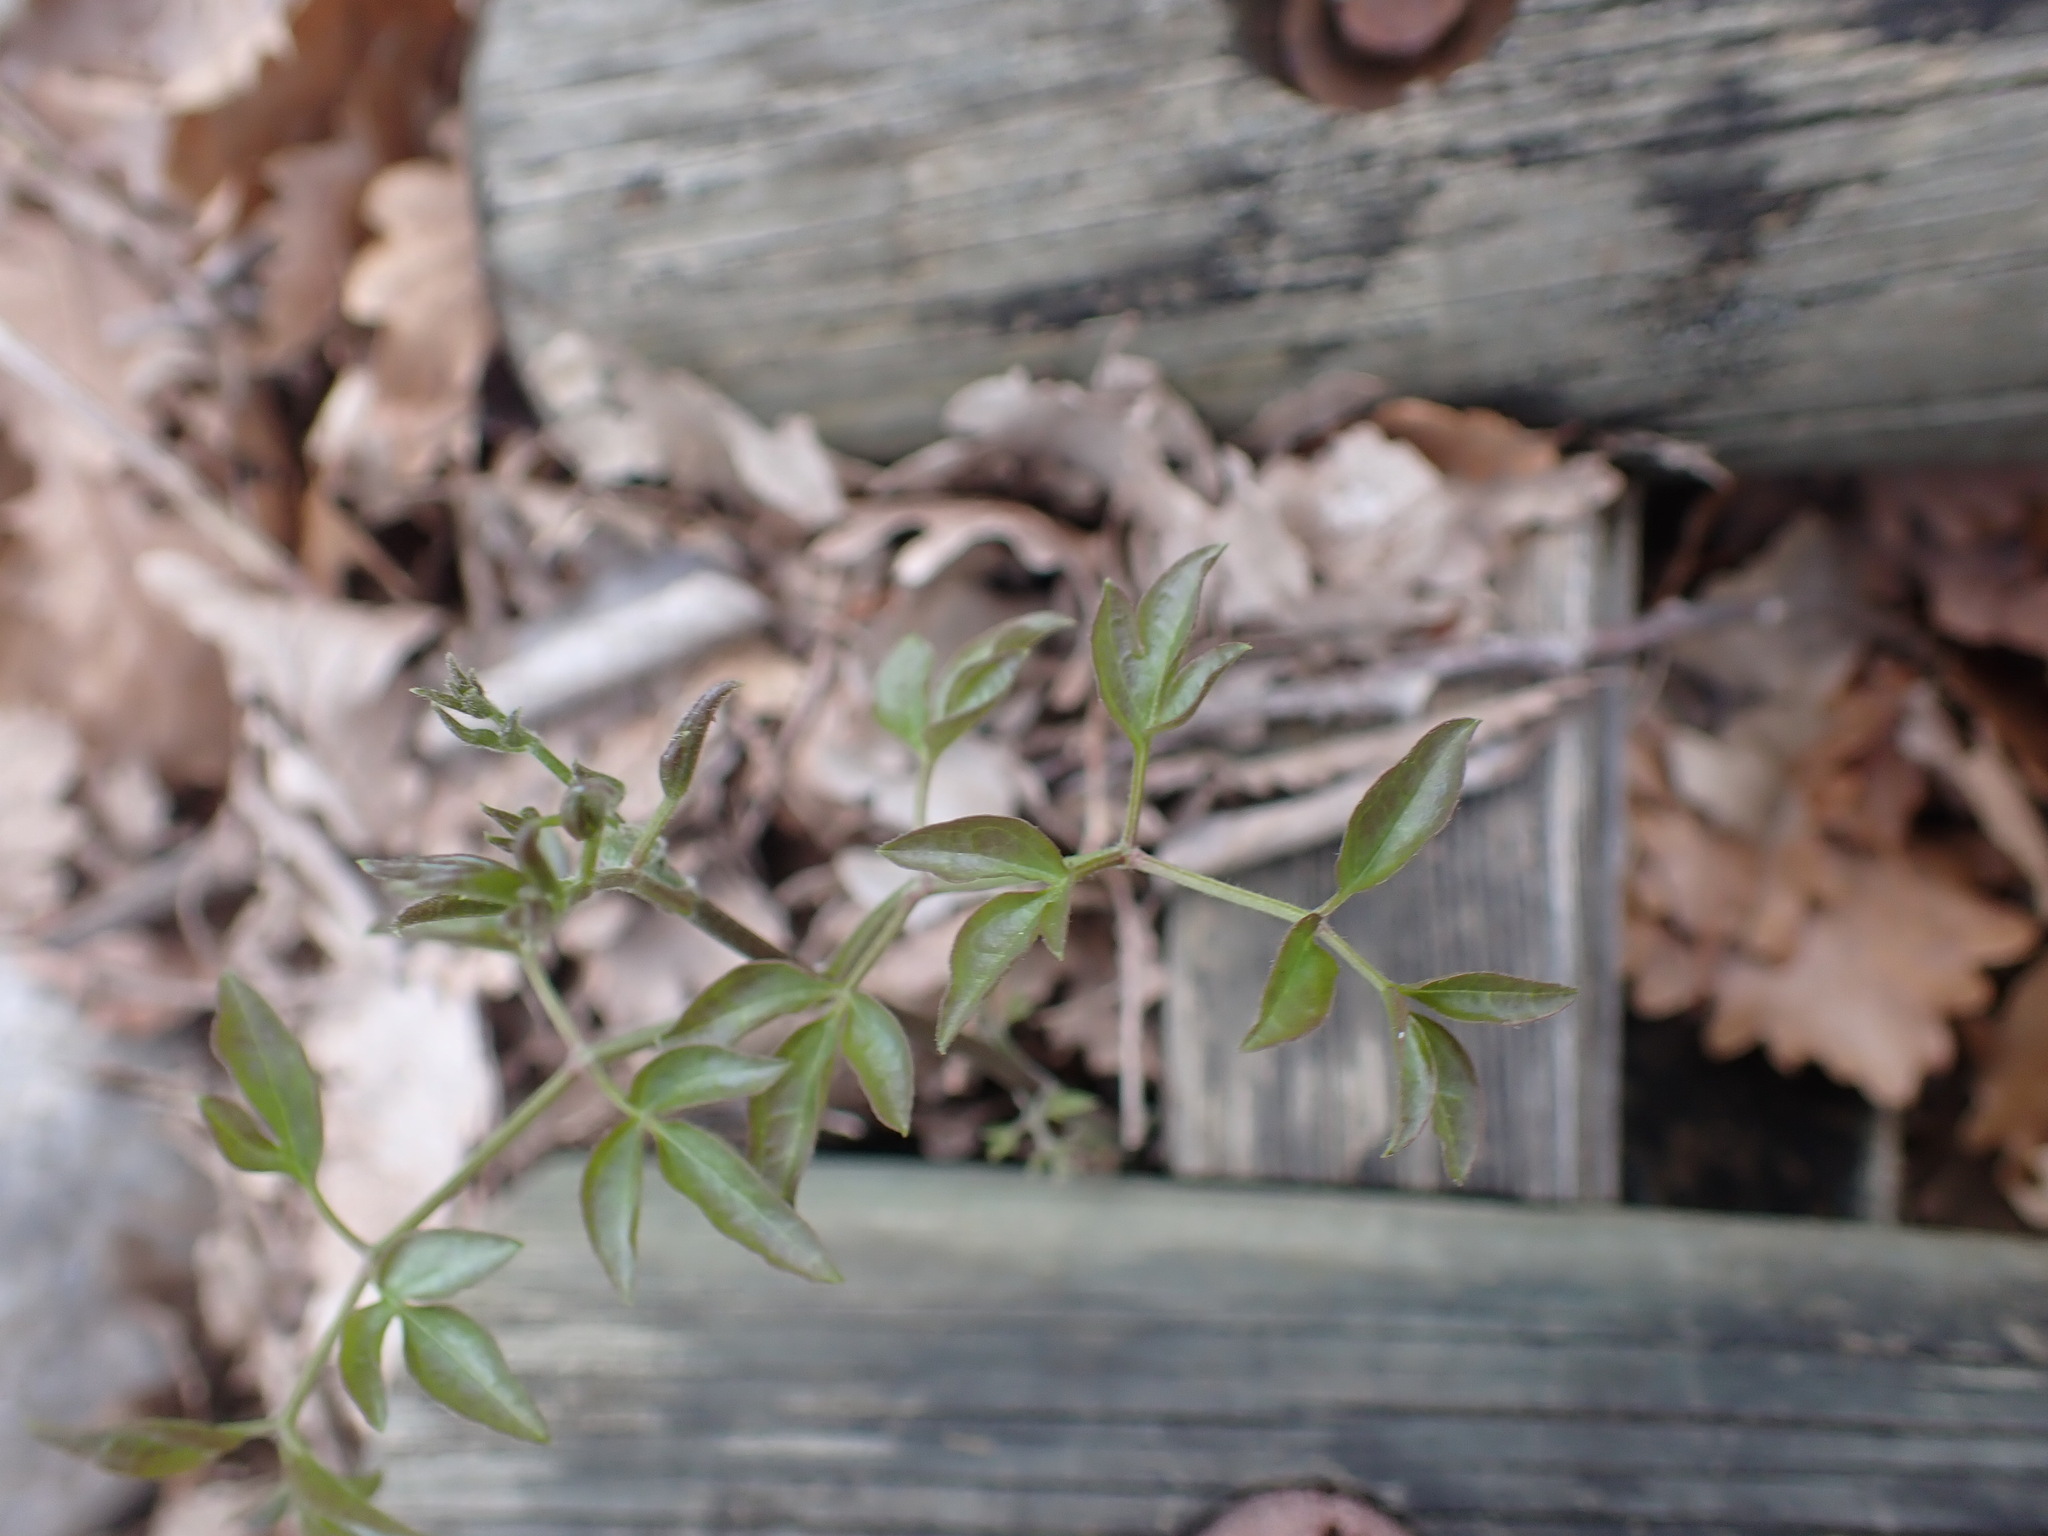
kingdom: Plantae
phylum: Tracheophyta
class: Magnoliopsida
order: Ranunculales
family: Ranunculaceae
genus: Clematis
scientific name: Clematis flammula
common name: Virgin's-bower
